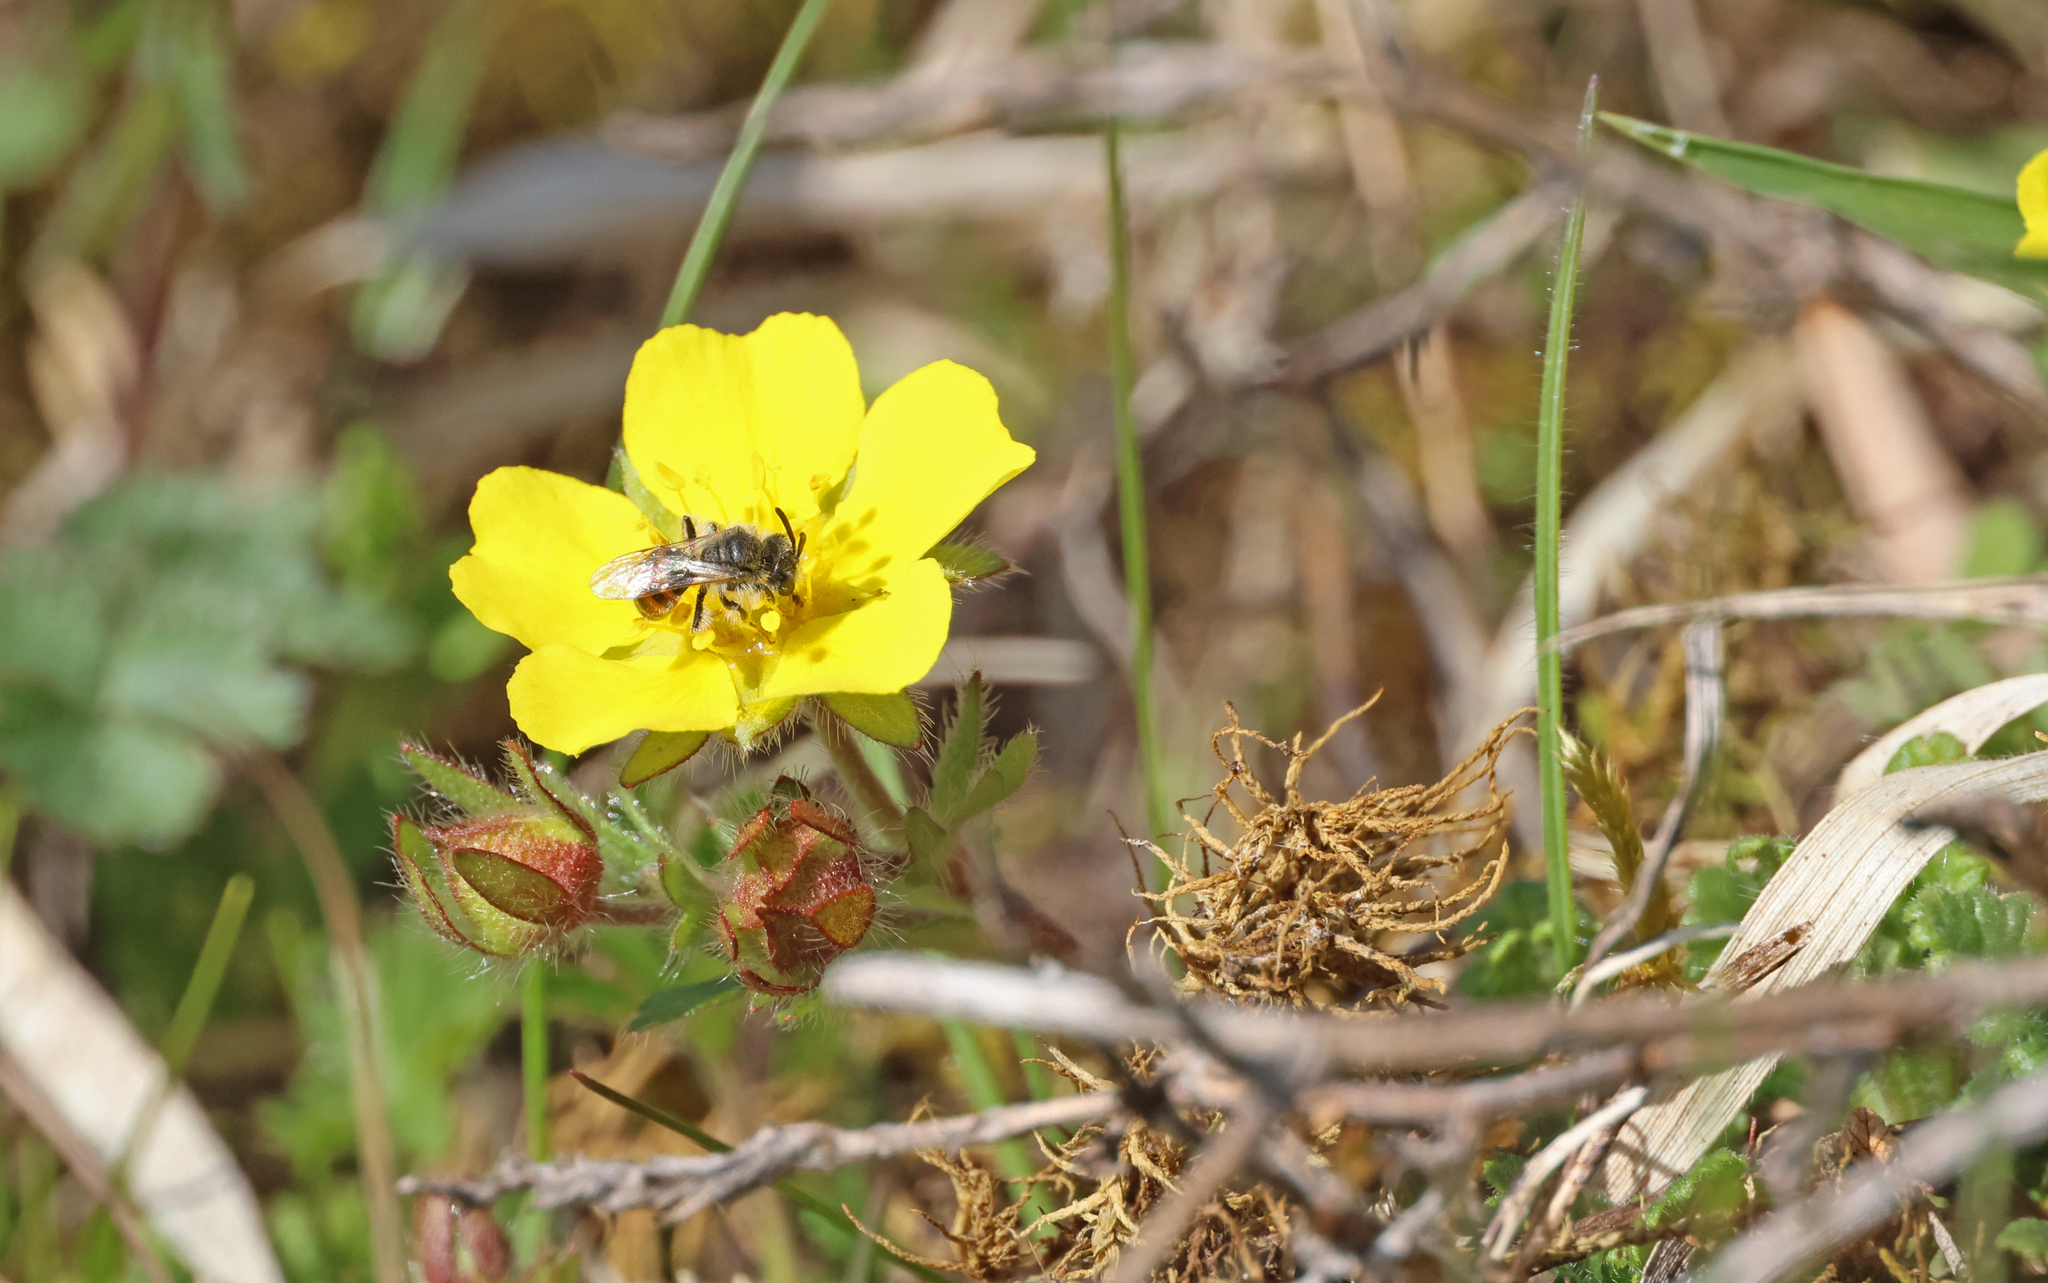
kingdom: Animalia
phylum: Arthropoda
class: Insecta
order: Hymenoptera
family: Andrenidae
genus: Andrena
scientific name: Andrena potentillae
